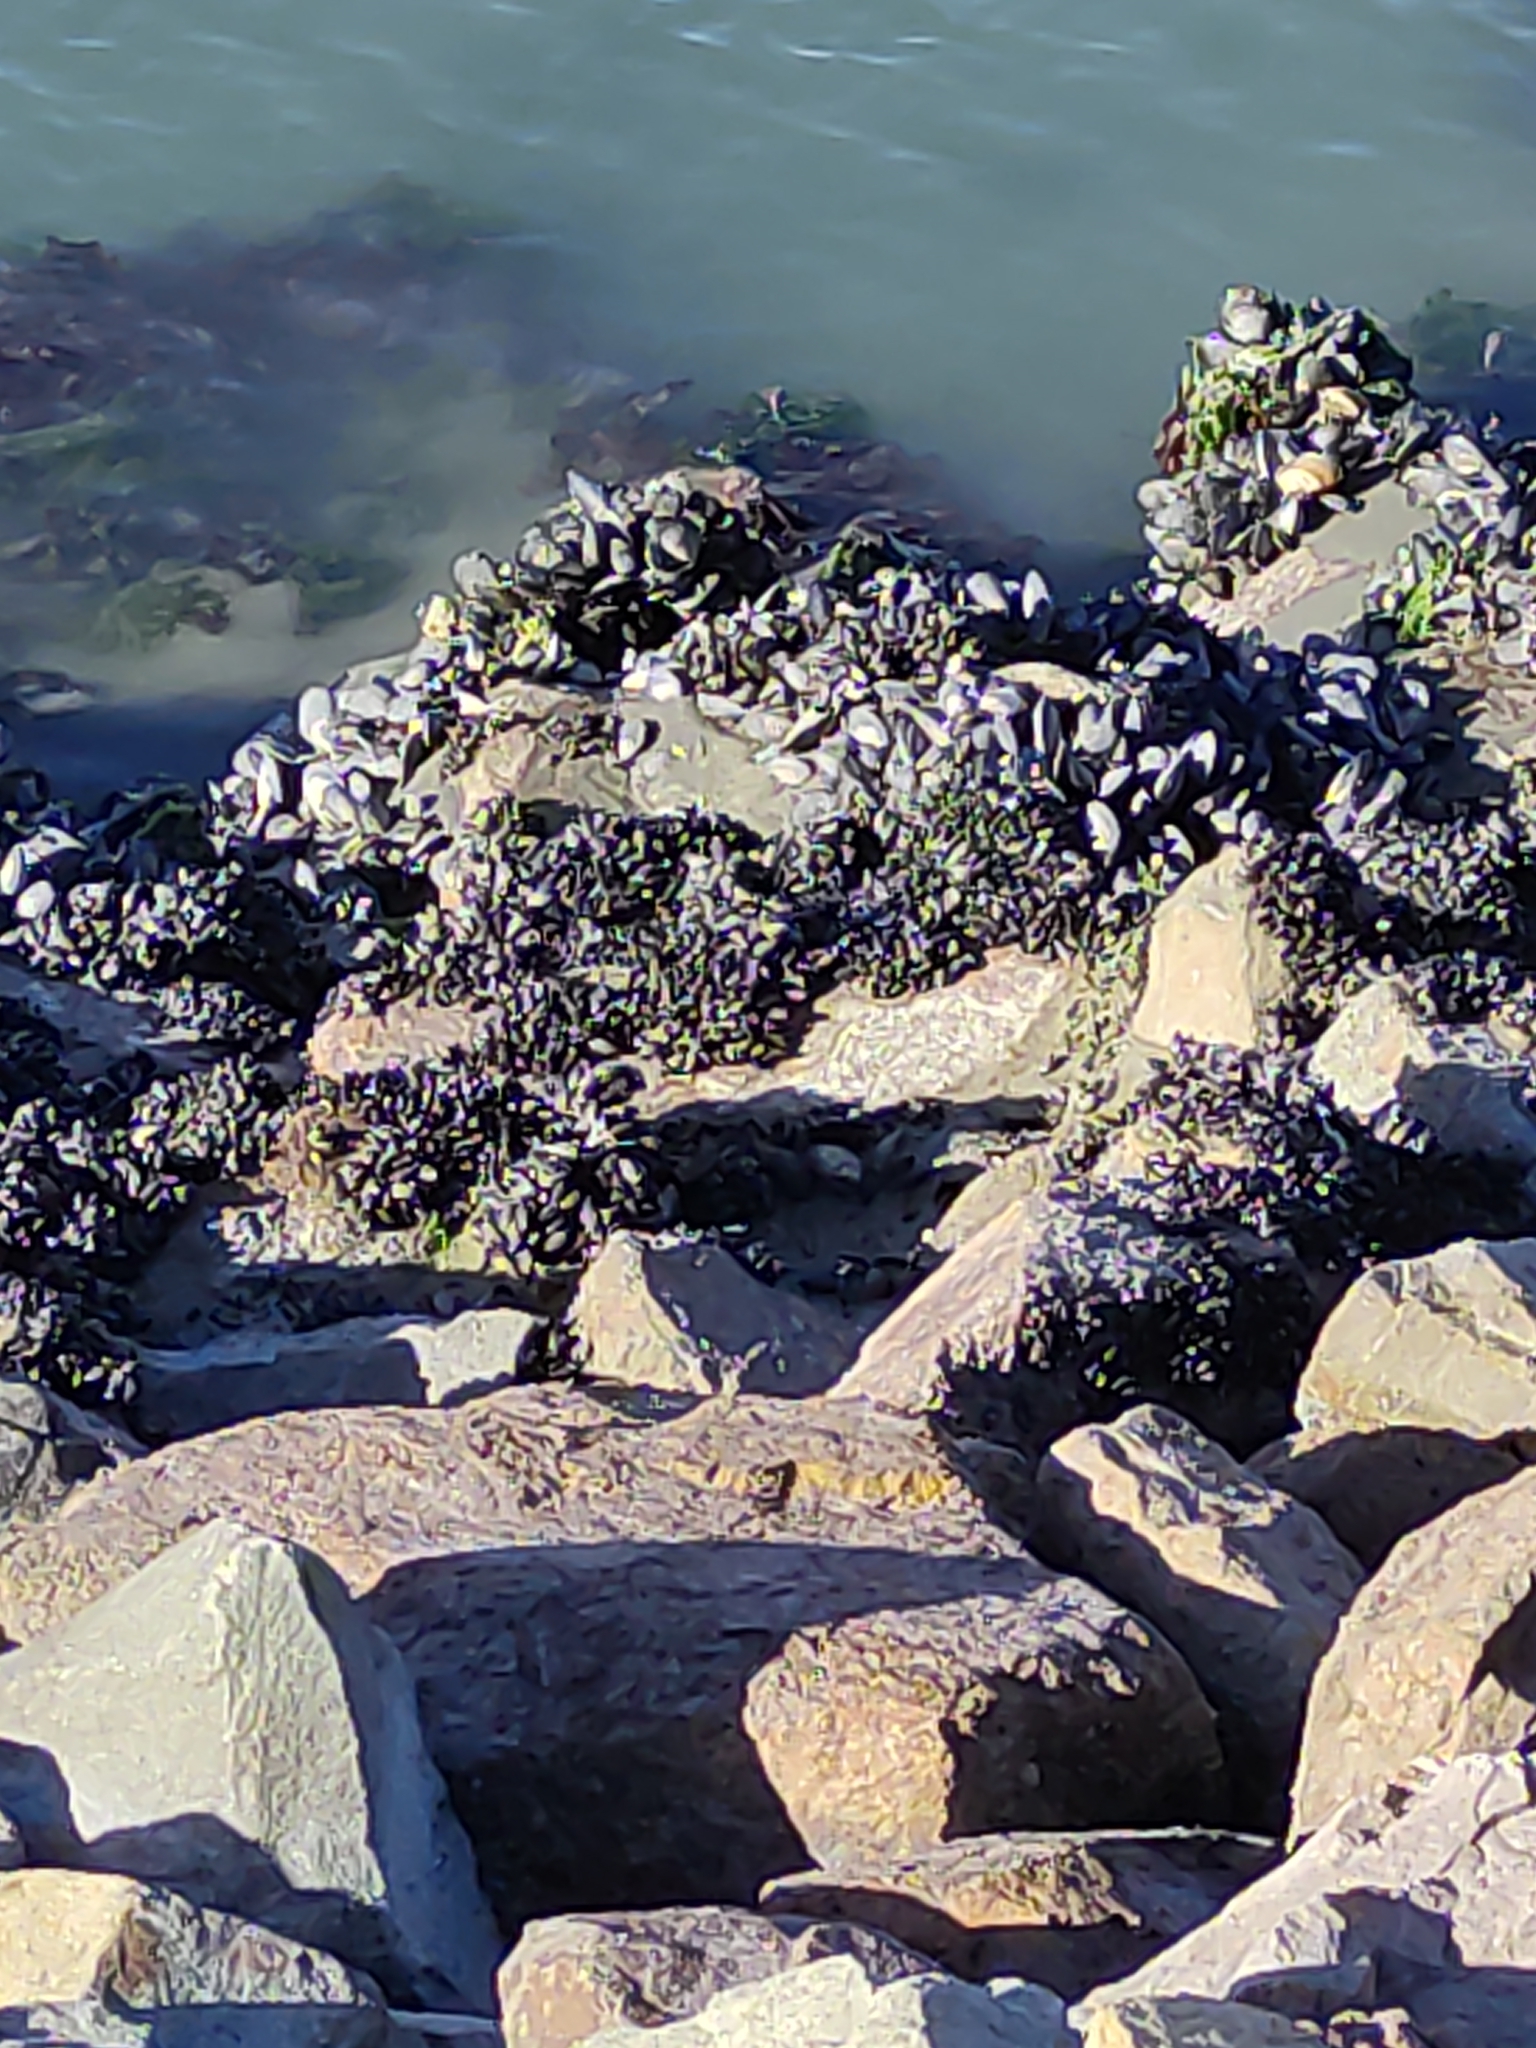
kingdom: Animalia
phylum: Mollusca
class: Bivalvia
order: Mytilida
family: Mytilidae
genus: Perna
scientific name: Perna canaliculus
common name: New zealand greenshelltm
